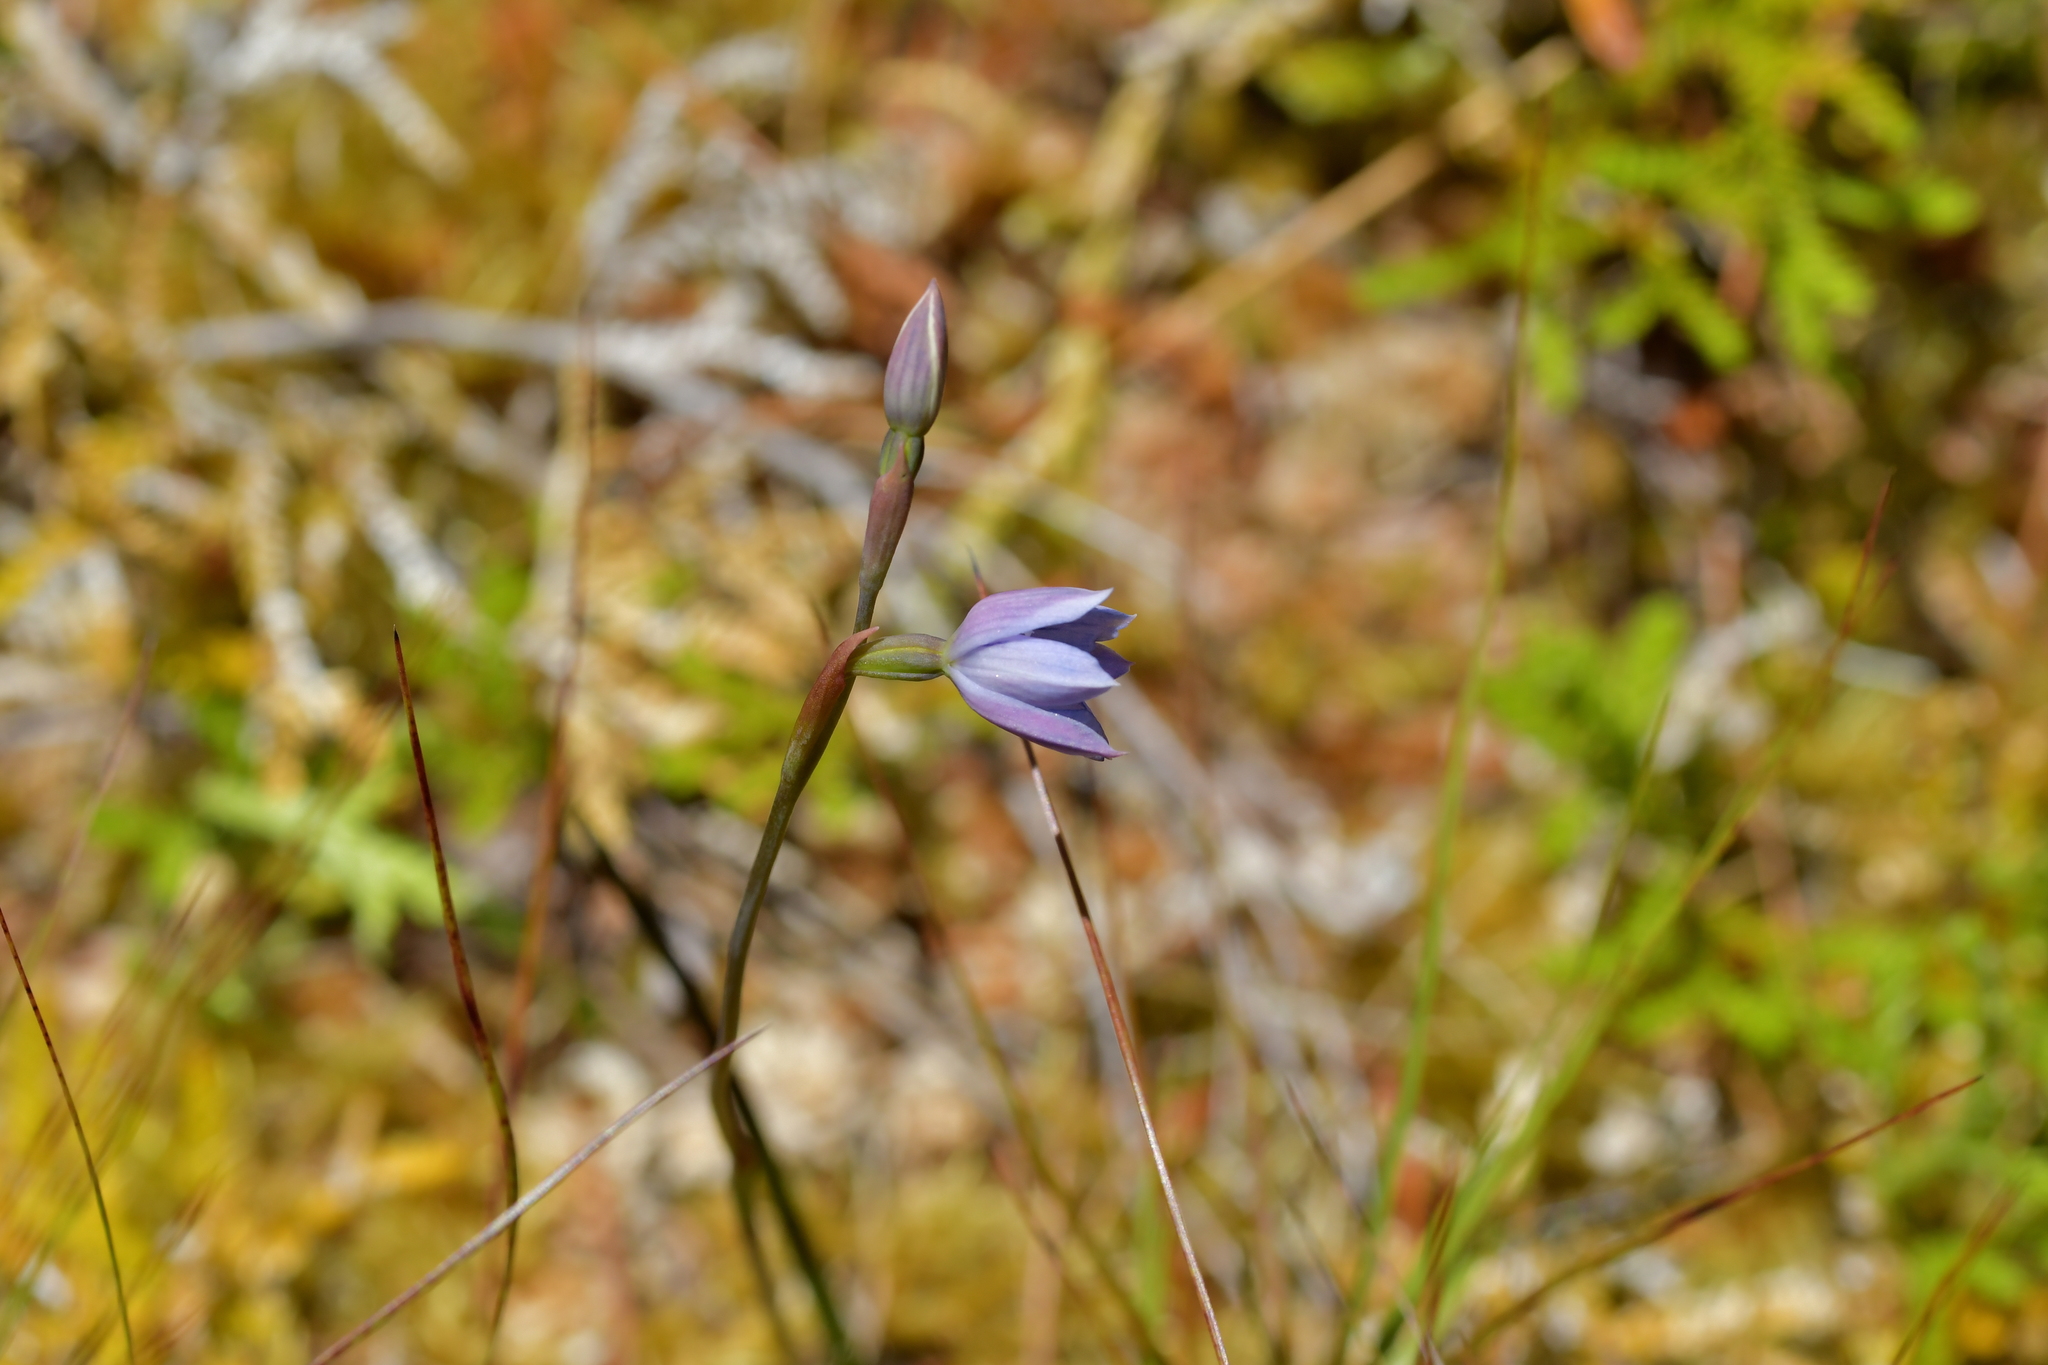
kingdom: Plantae
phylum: Tracheophyta
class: Liliopsida
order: Asparagales
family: Orchidaceae
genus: Thelymitra
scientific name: Thelymitra cyanea
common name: Blue sun-orchid
